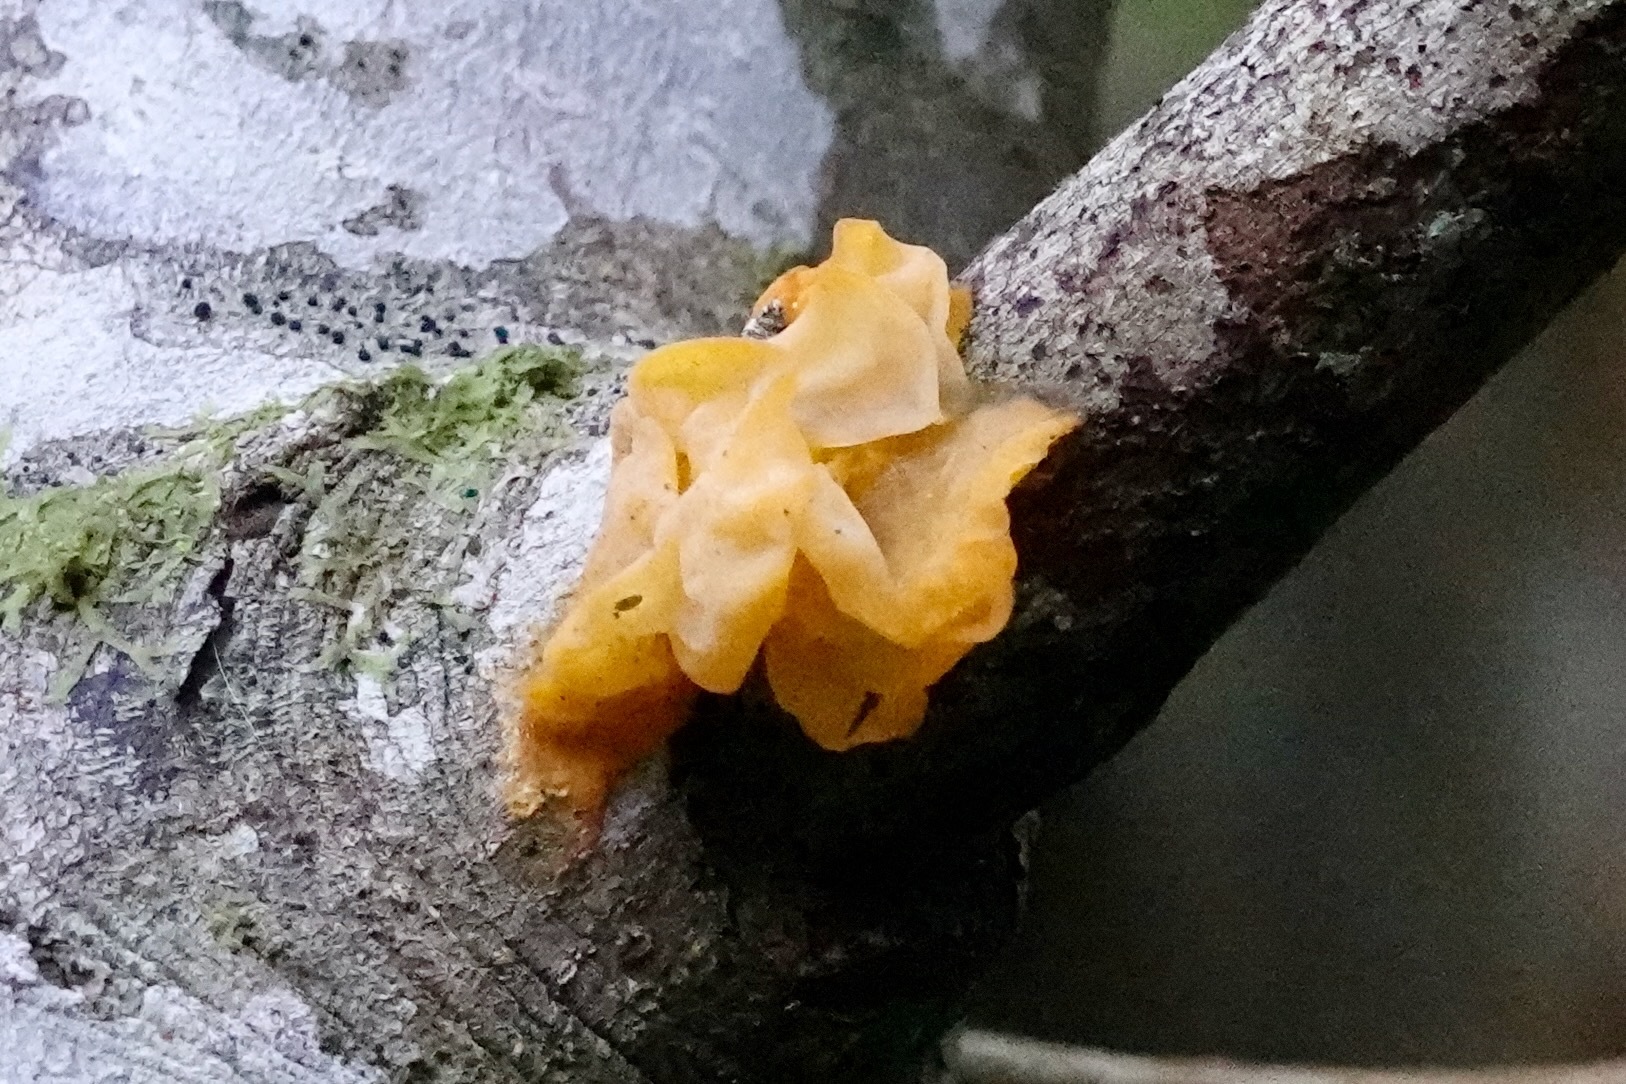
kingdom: Fungi
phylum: Basidiomycota
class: Tremellomycetes
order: Tremellales
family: Tremellaceae
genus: Tremella
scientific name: Tremella mesenterica
